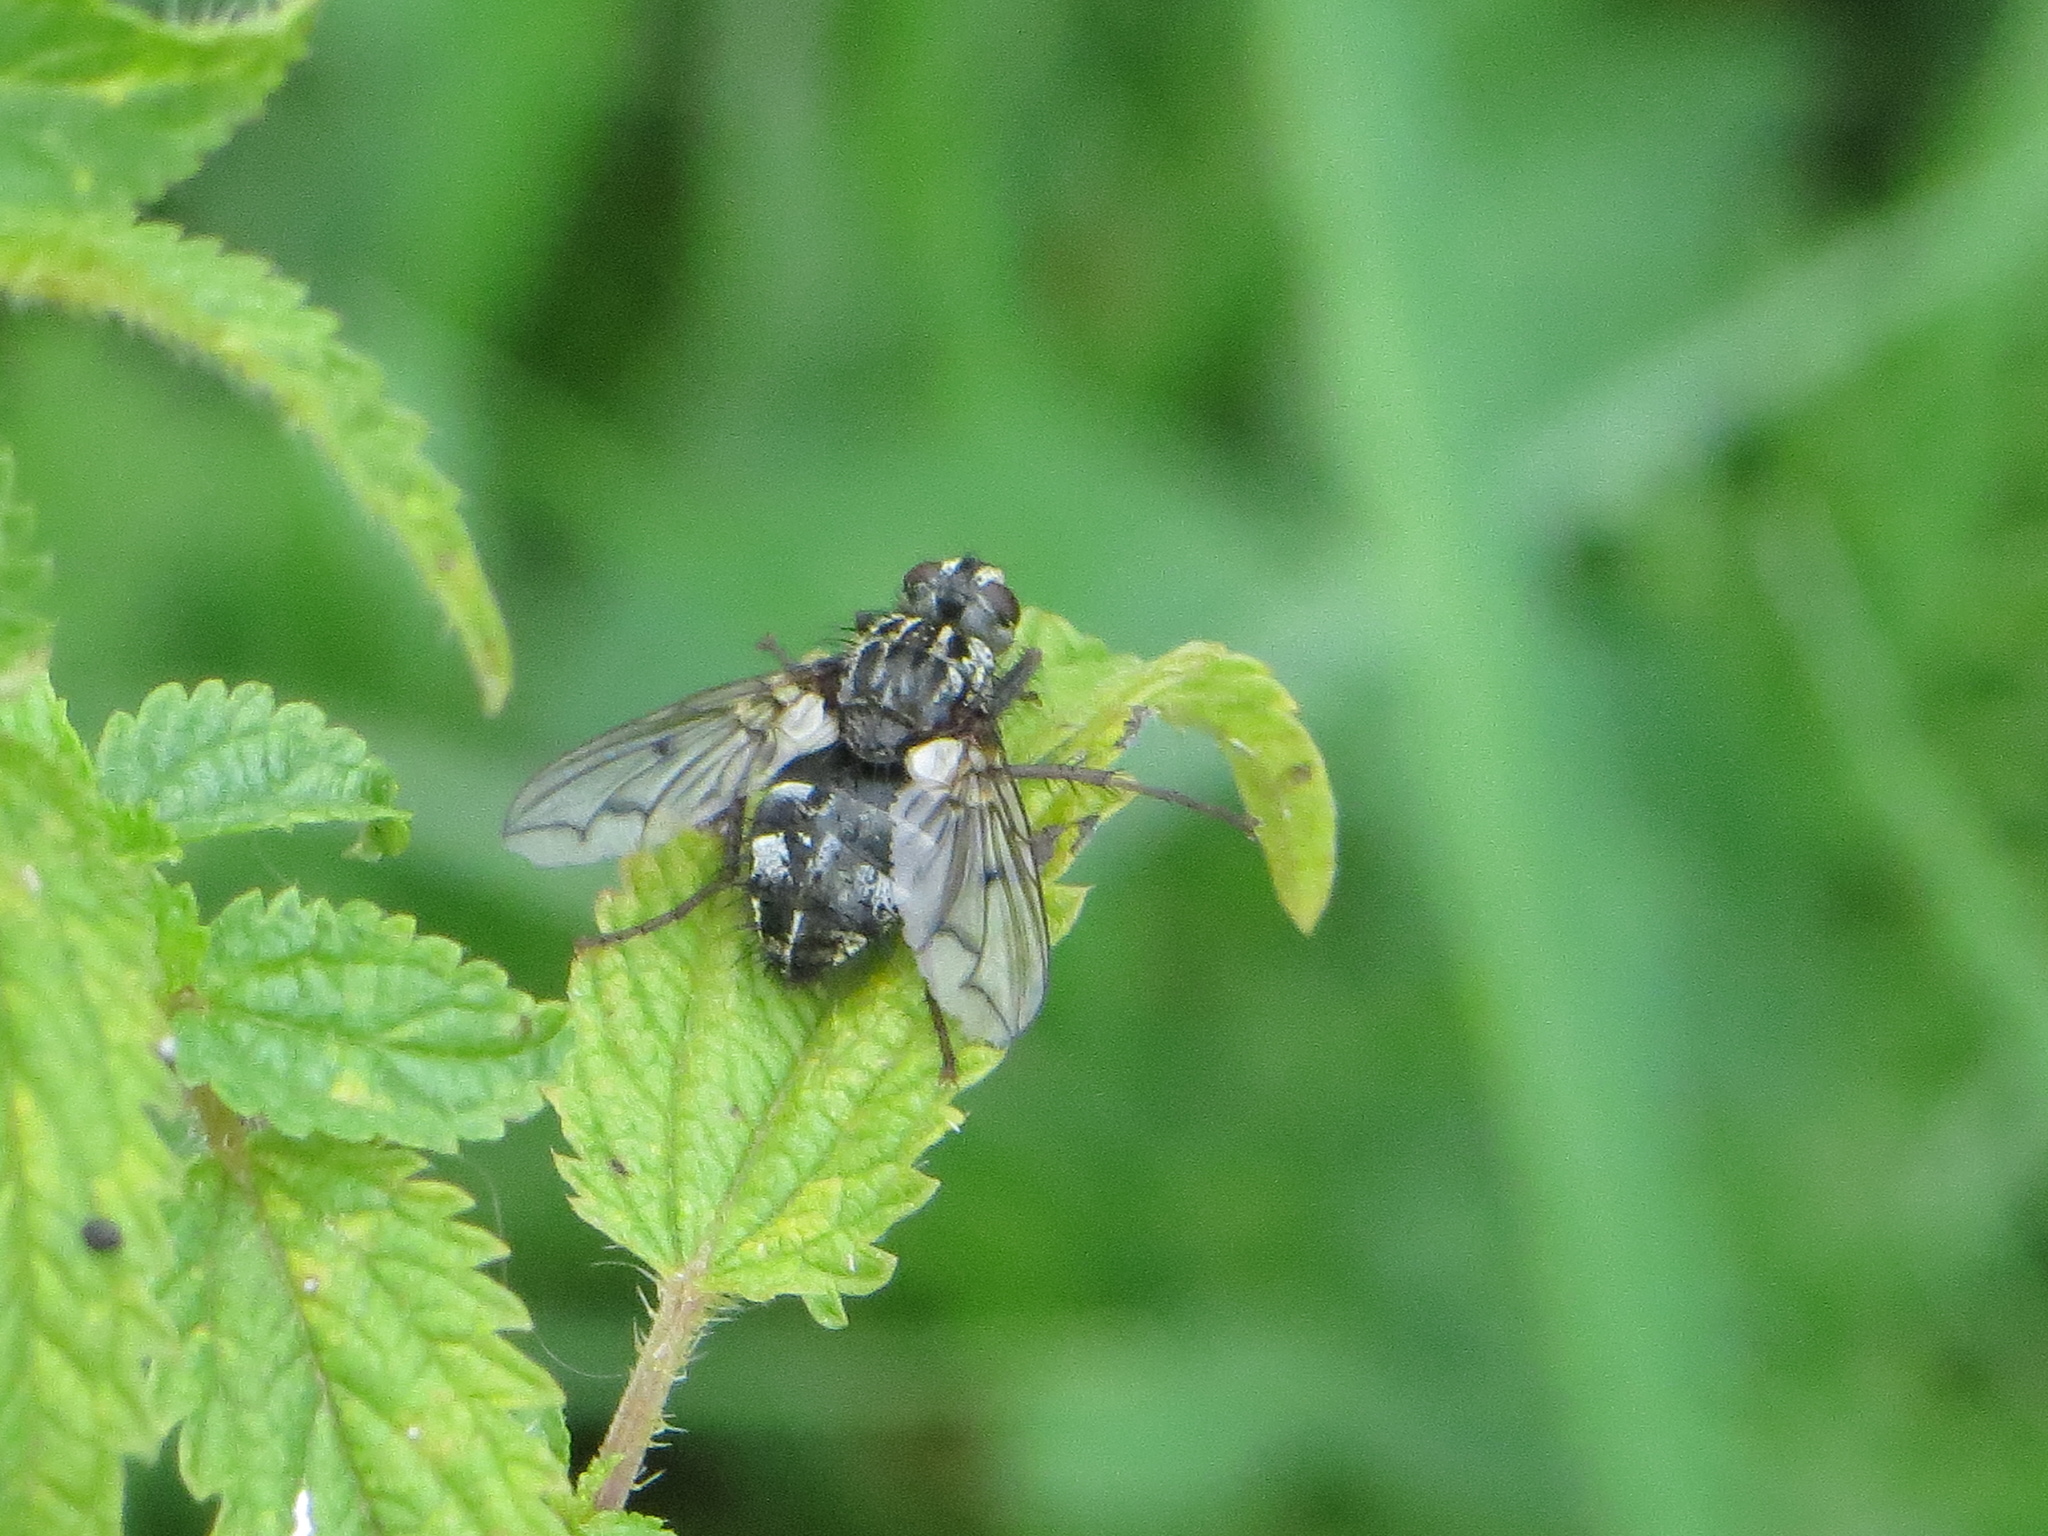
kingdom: Animalia
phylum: Arthropoda
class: Insecta
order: Diptera
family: Tachinidae
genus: Trixa
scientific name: Trixa conspersa
